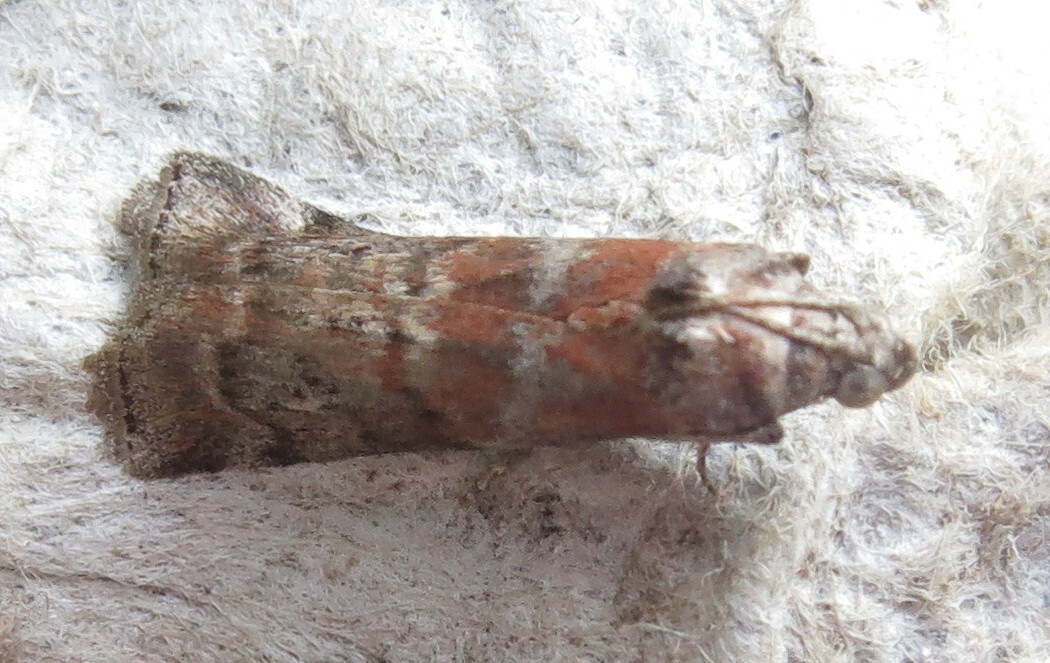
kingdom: Animalia
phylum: Arthropoda
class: Insecta
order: Lepidoptera
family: Pyralidae
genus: Phycita
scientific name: Phycita roborella
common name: Dotted oak knot-horn
